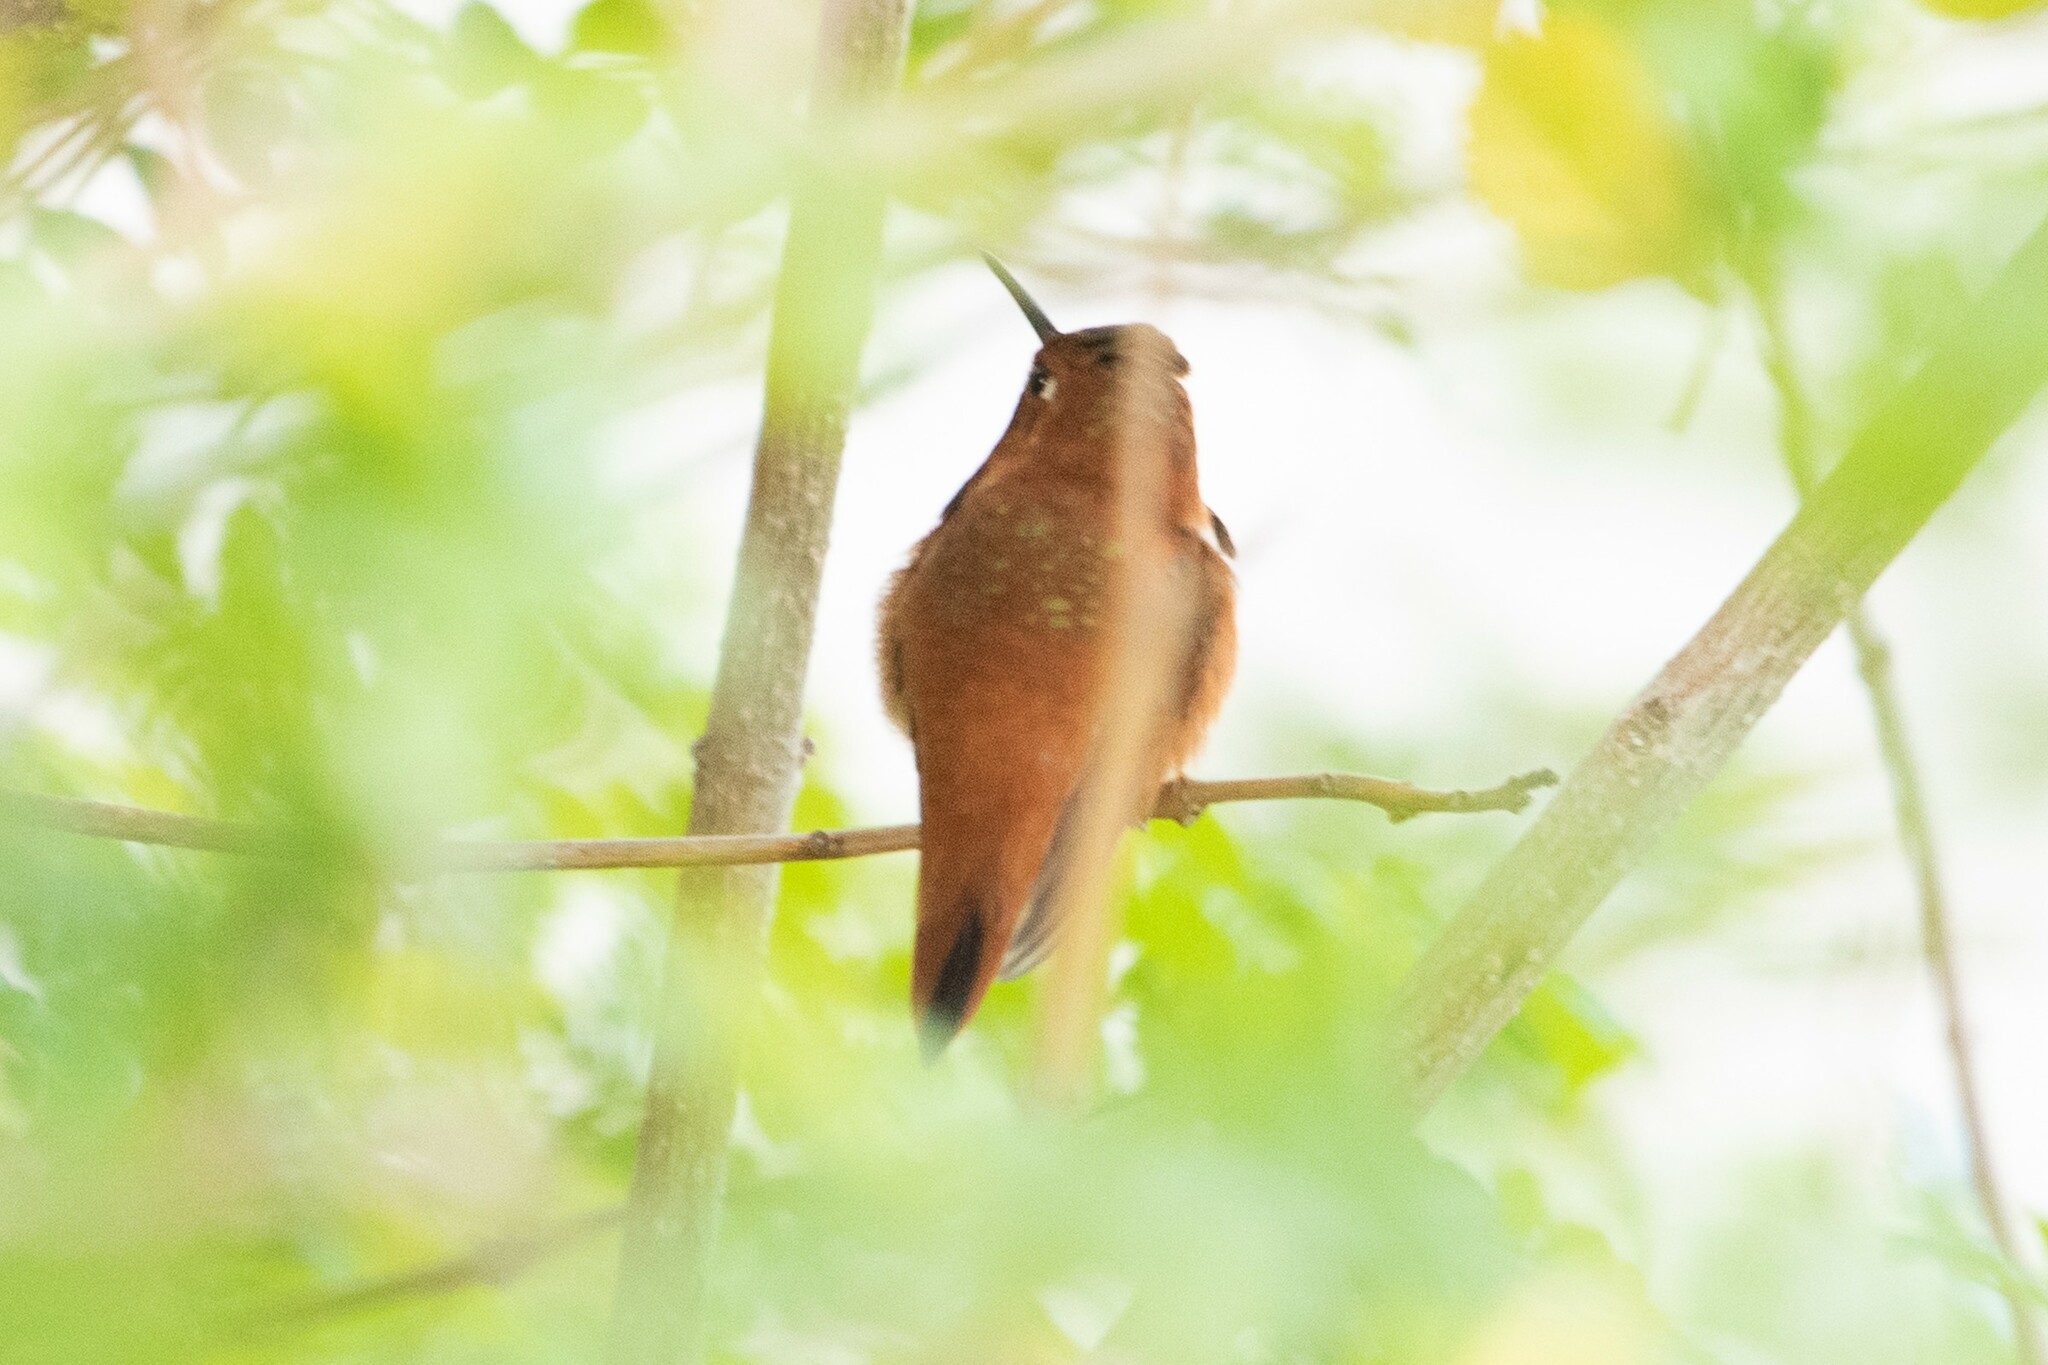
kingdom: Animalia
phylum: Chordata
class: Aves
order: Apodiformes
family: Trochilidae
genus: Selasphorus
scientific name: Selasphorus rufus
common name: Rufous hummingbird
